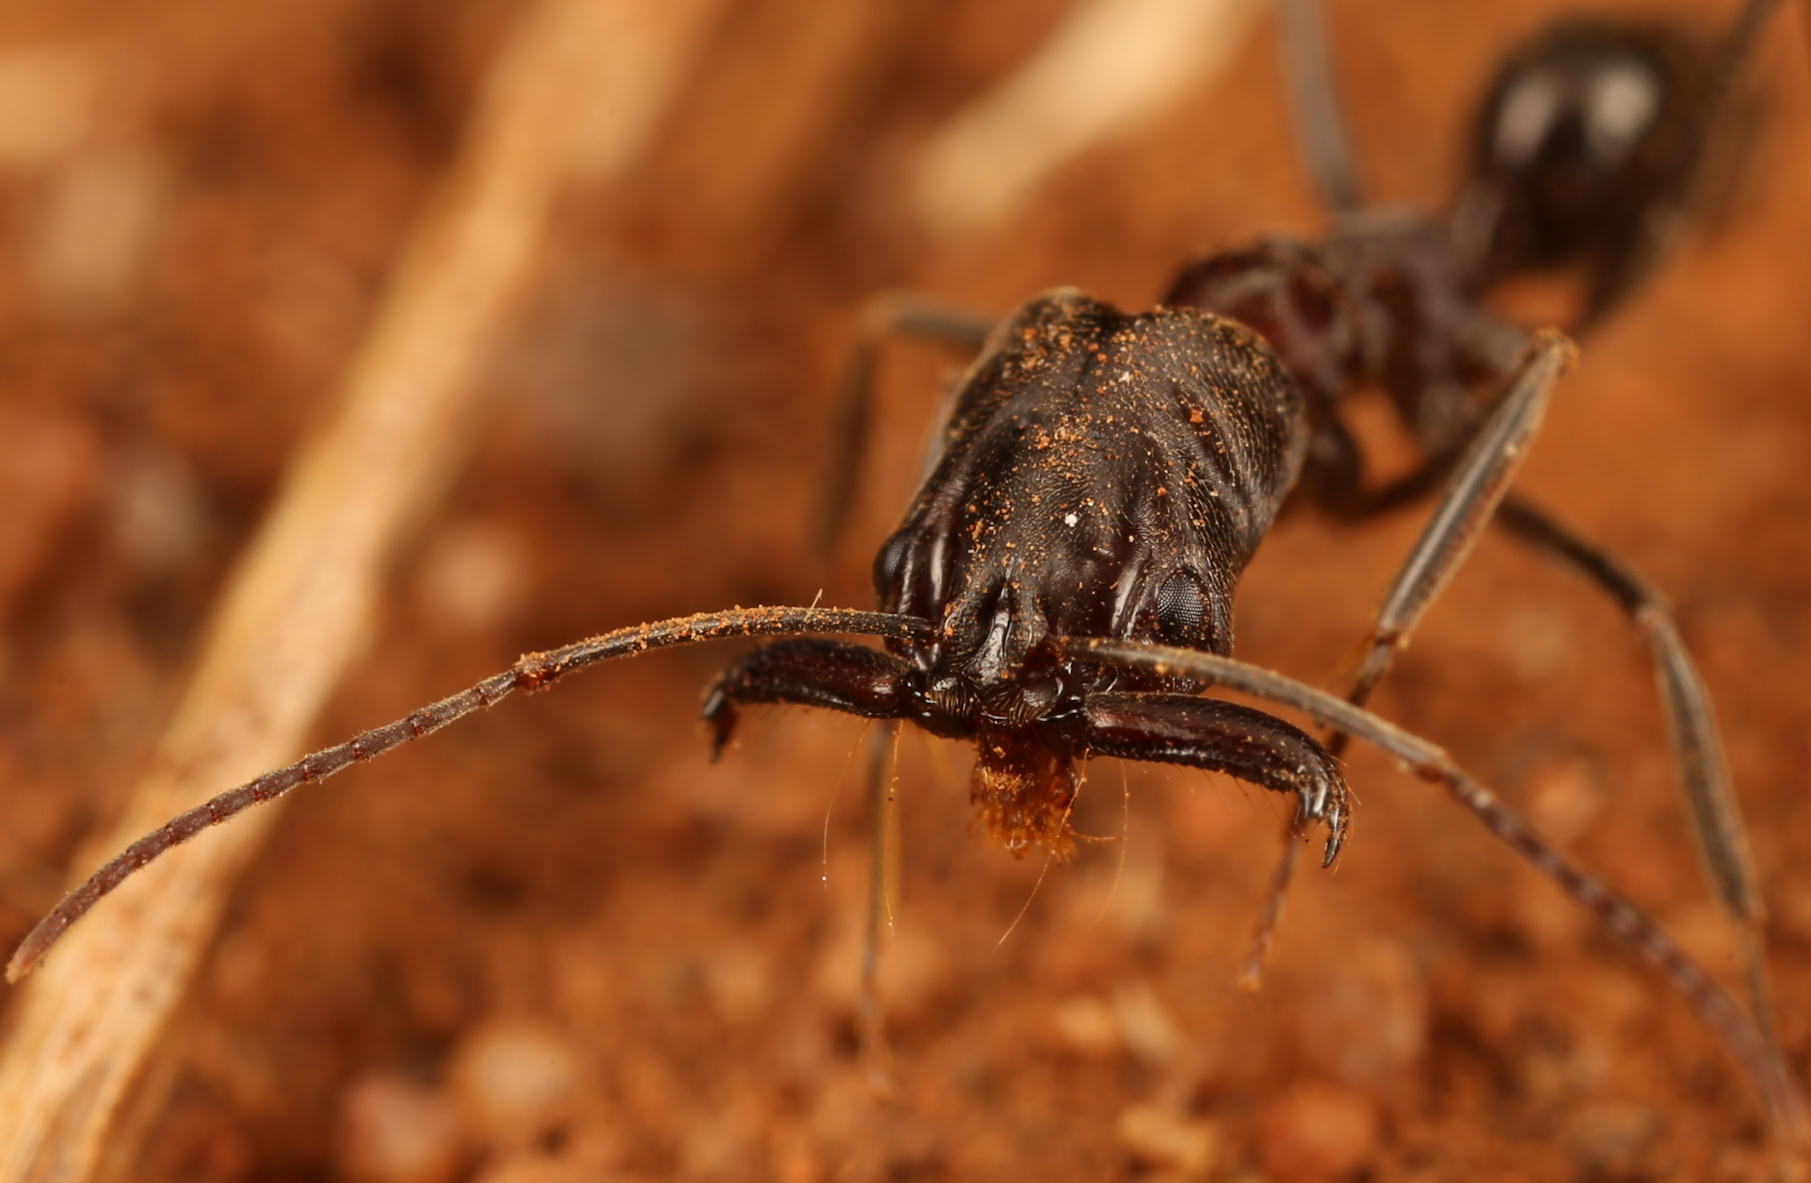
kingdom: Animalia
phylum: Arthropoda
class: Insecta
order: Hymenoptera
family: Formicidae
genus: Odontomachus
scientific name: Odontomachus troglodytes
